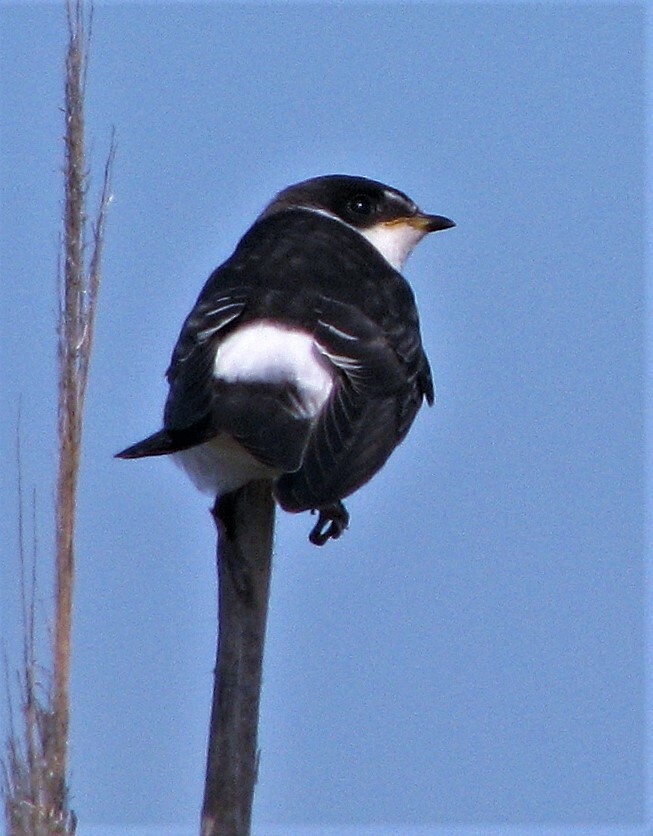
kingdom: Animalia
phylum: Chordata
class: Aves
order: Passeriformes
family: Hirundinidae
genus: Tachycineta
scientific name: Tachycineta leucorrhoa
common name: White-rumped swallow
